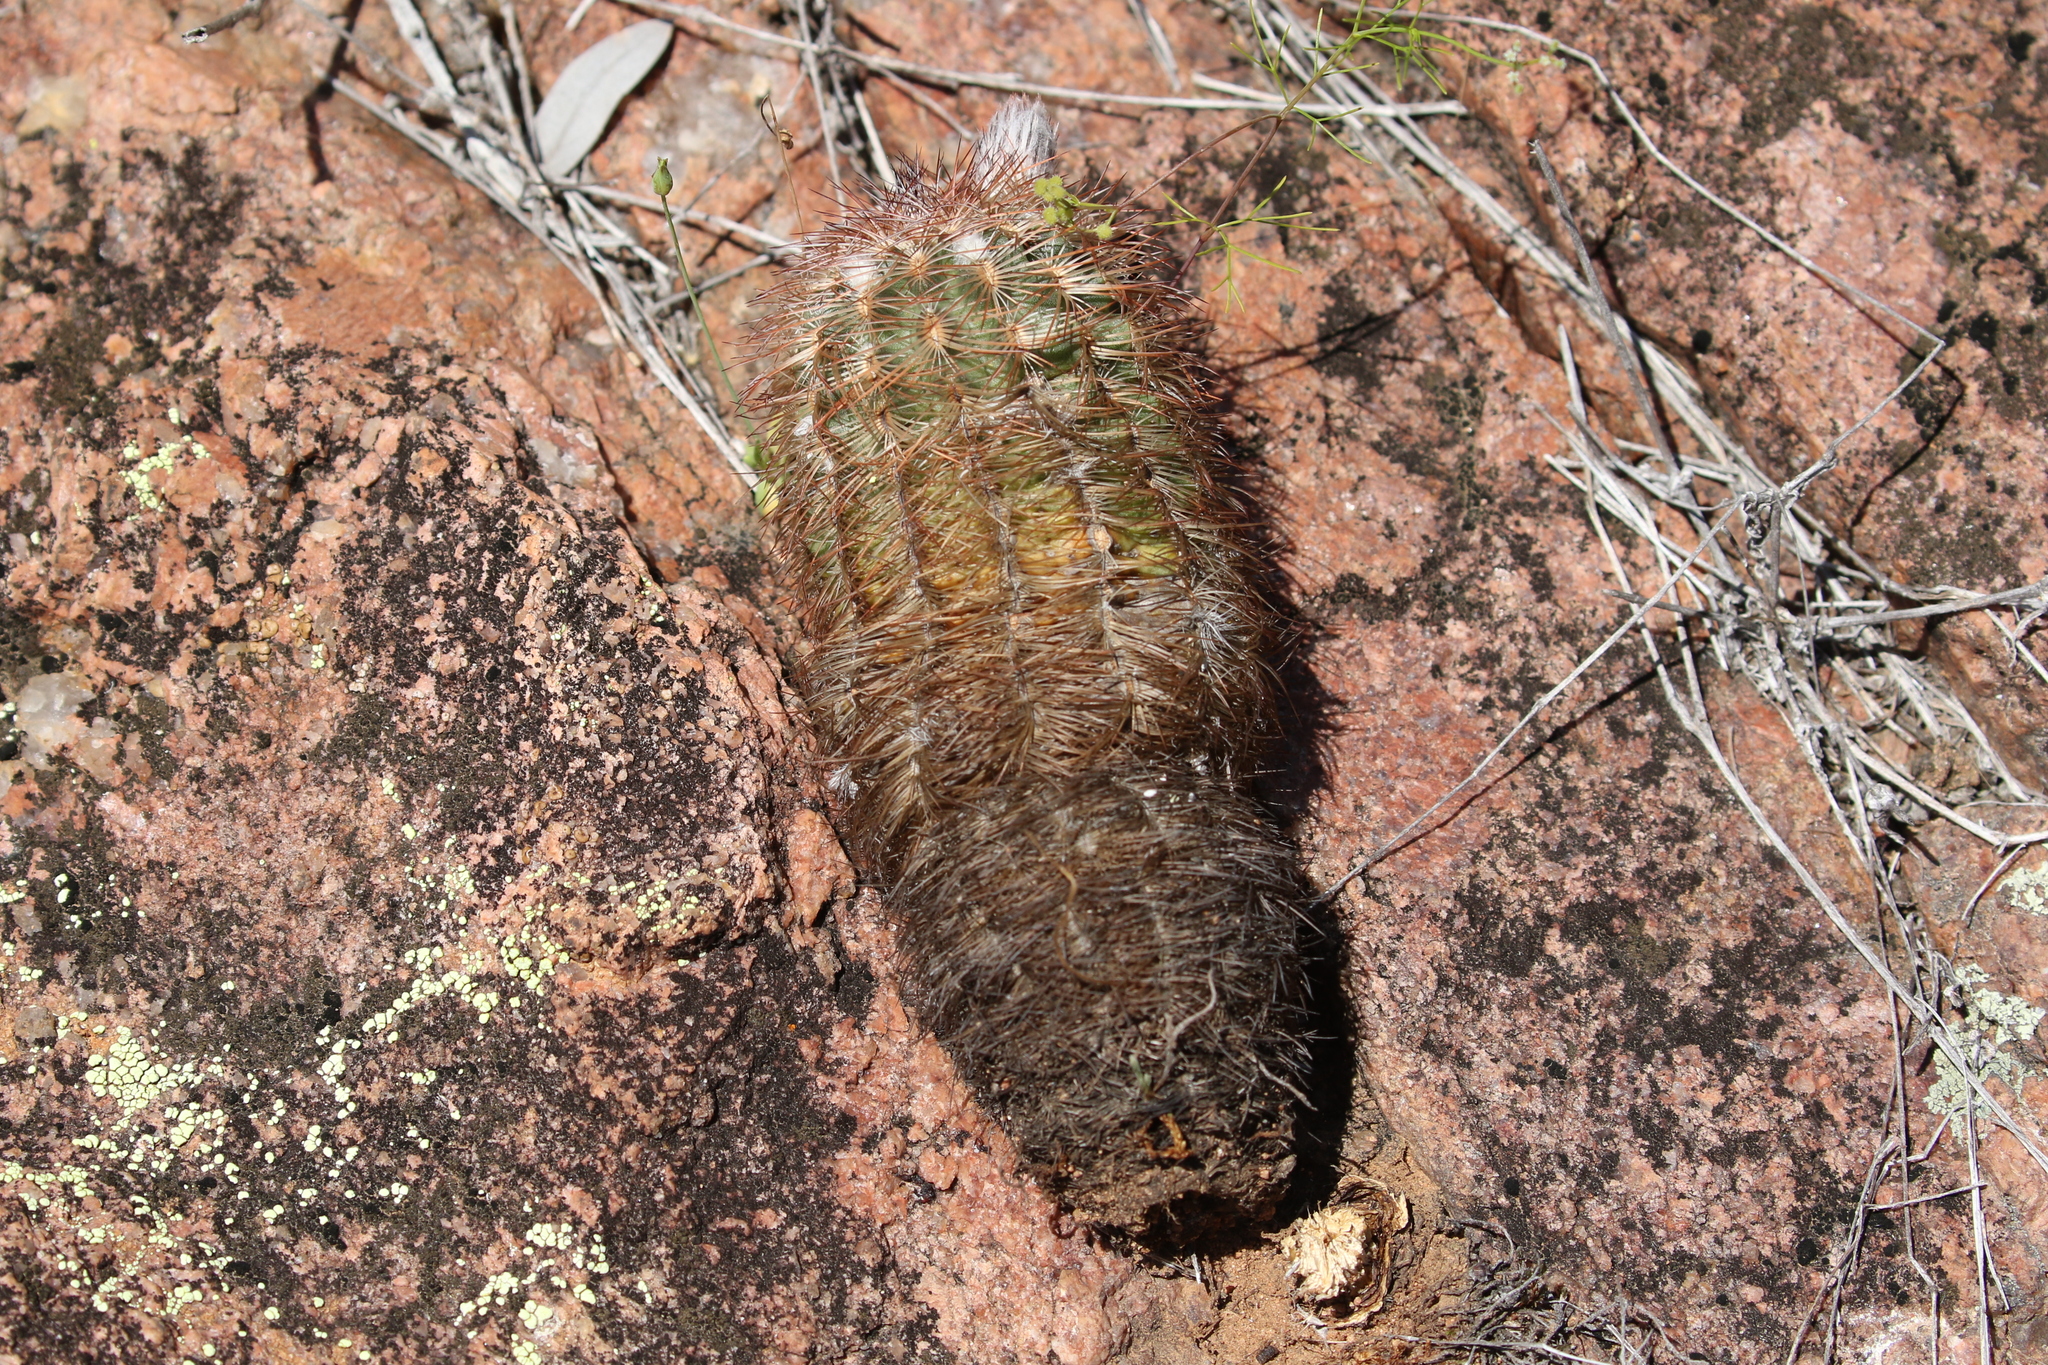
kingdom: Plantae
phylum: Tracheophyta
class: Magnoliopsida
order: Caryophyllales
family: Cactaceae
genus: Echinocereus
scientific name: Echinocereus reichenbachii
